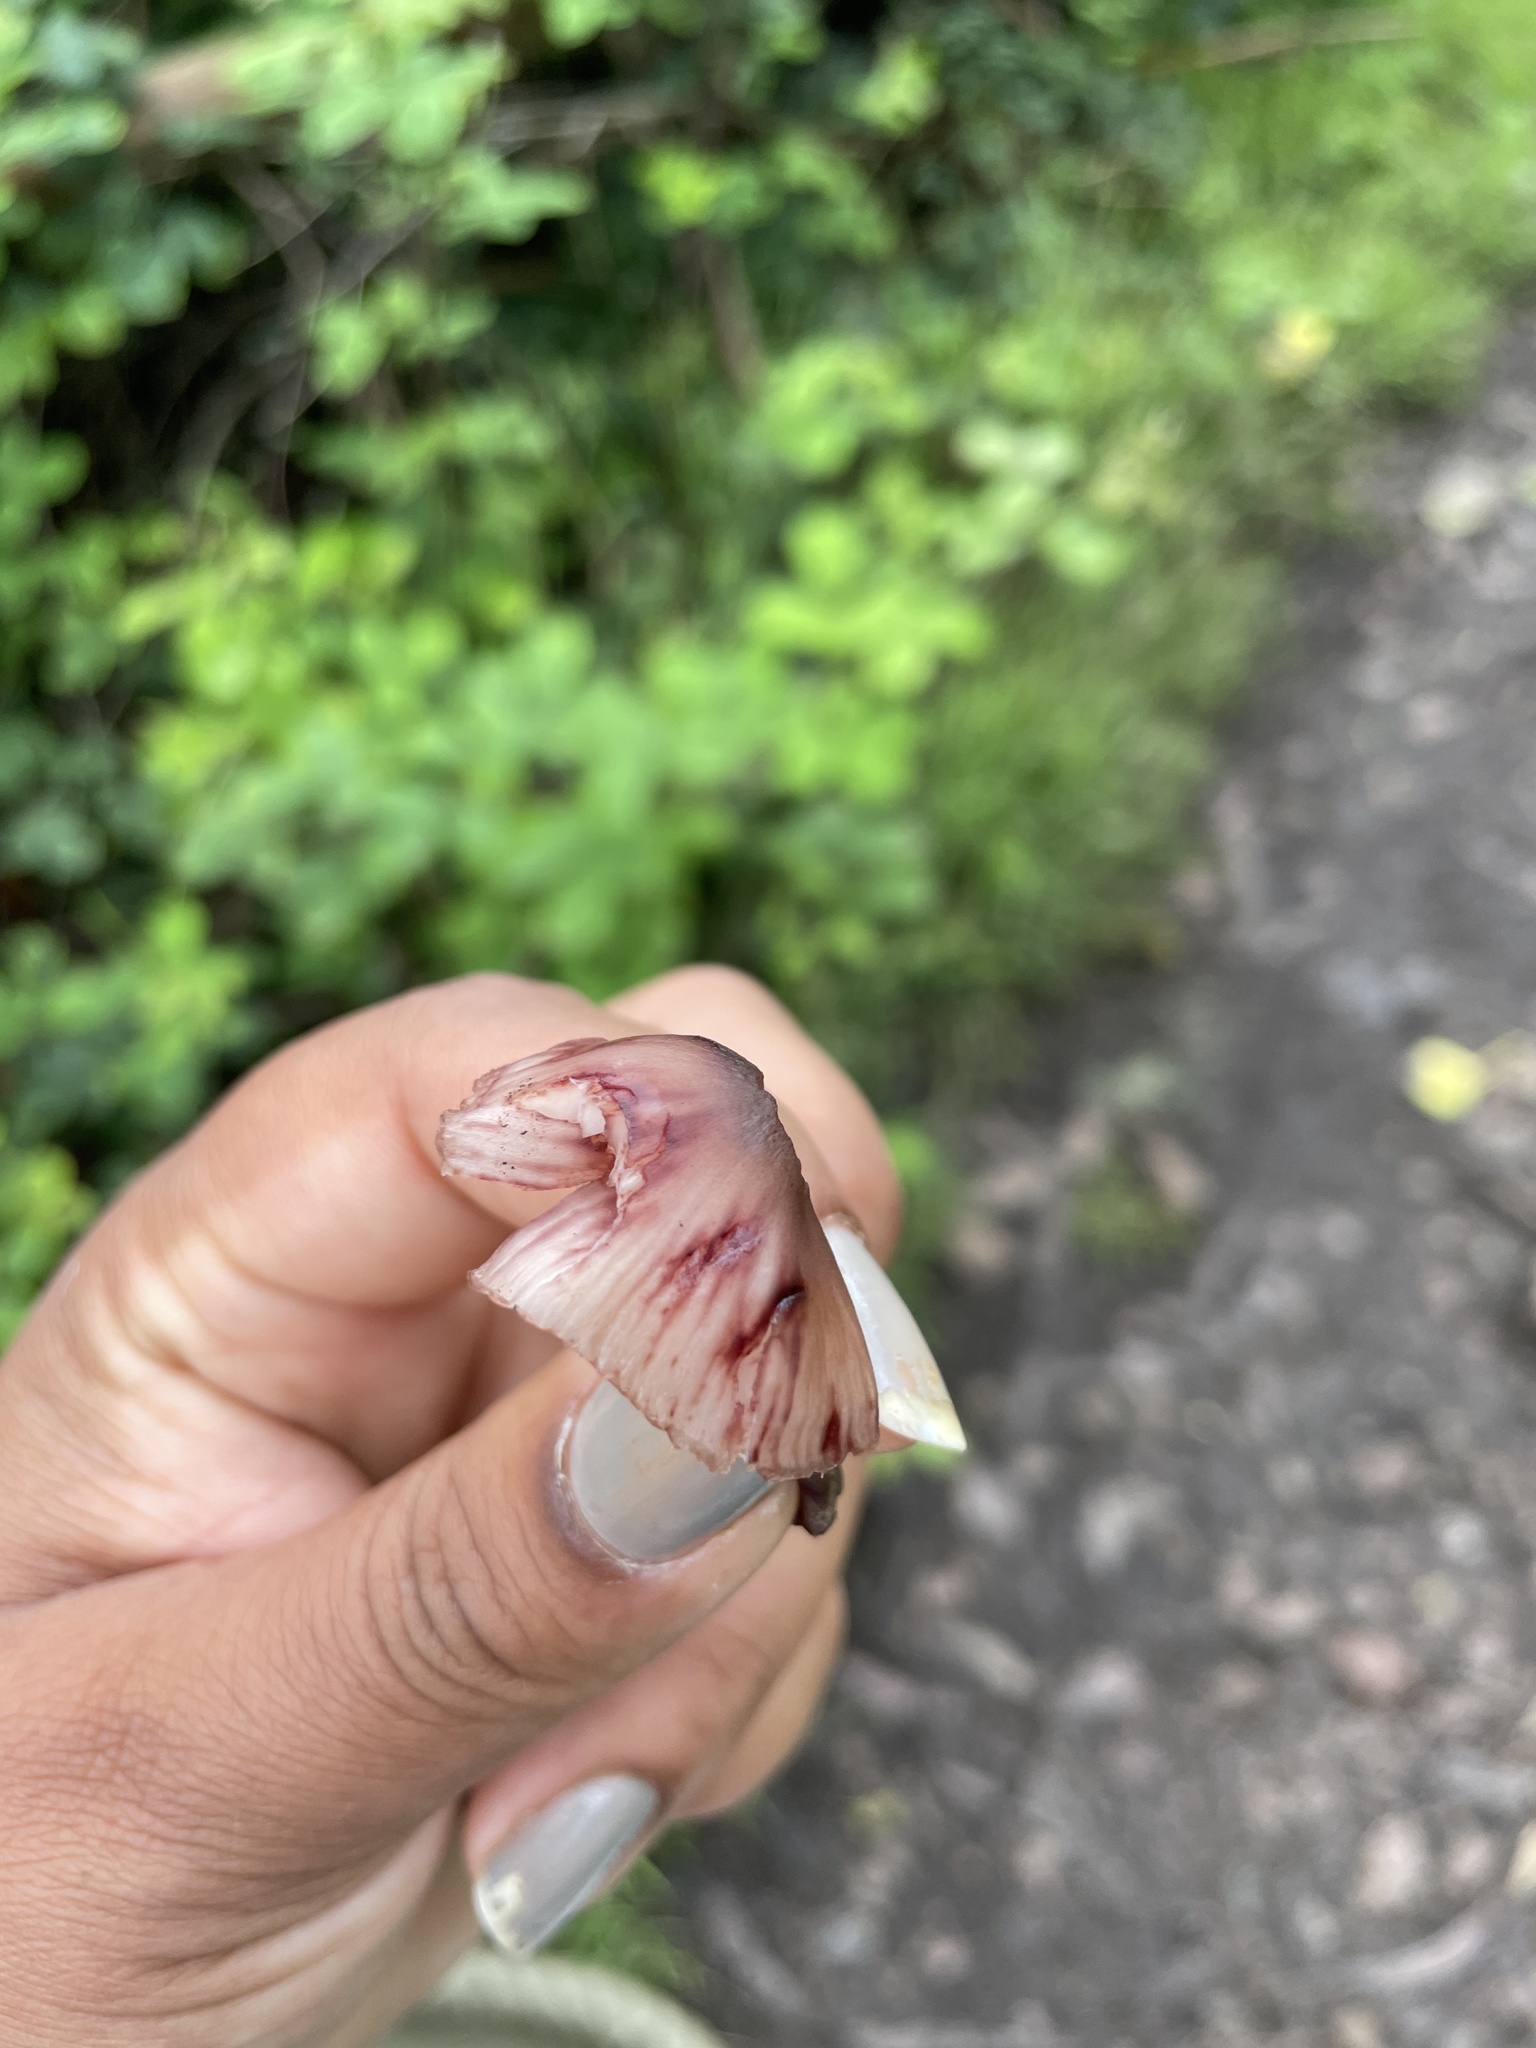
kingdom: Fungi
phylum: Basidiomycota
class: Agaricomycetes
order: Agaricales
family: Mycenaceae
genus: Mycena
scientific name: Mycena haematopus
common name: Burgundydrop bonnet
